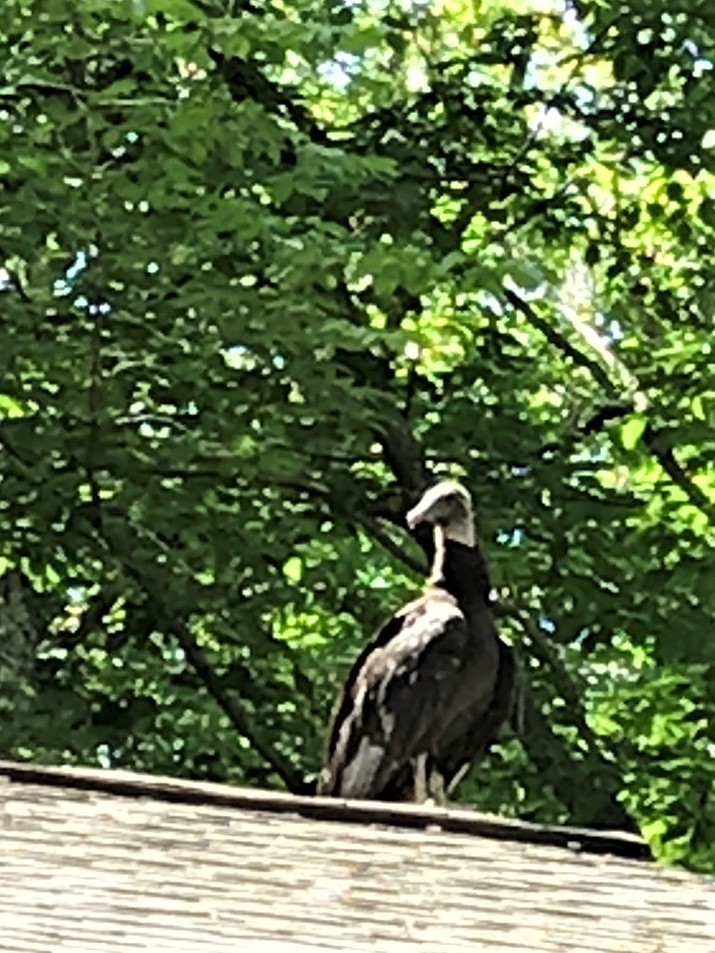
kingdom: Animalia
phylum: Chordata
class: Aves
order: Accipitriformes
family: Cathartidae
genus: Coragyps
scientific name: Coragyps atratus
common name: Black vulture
